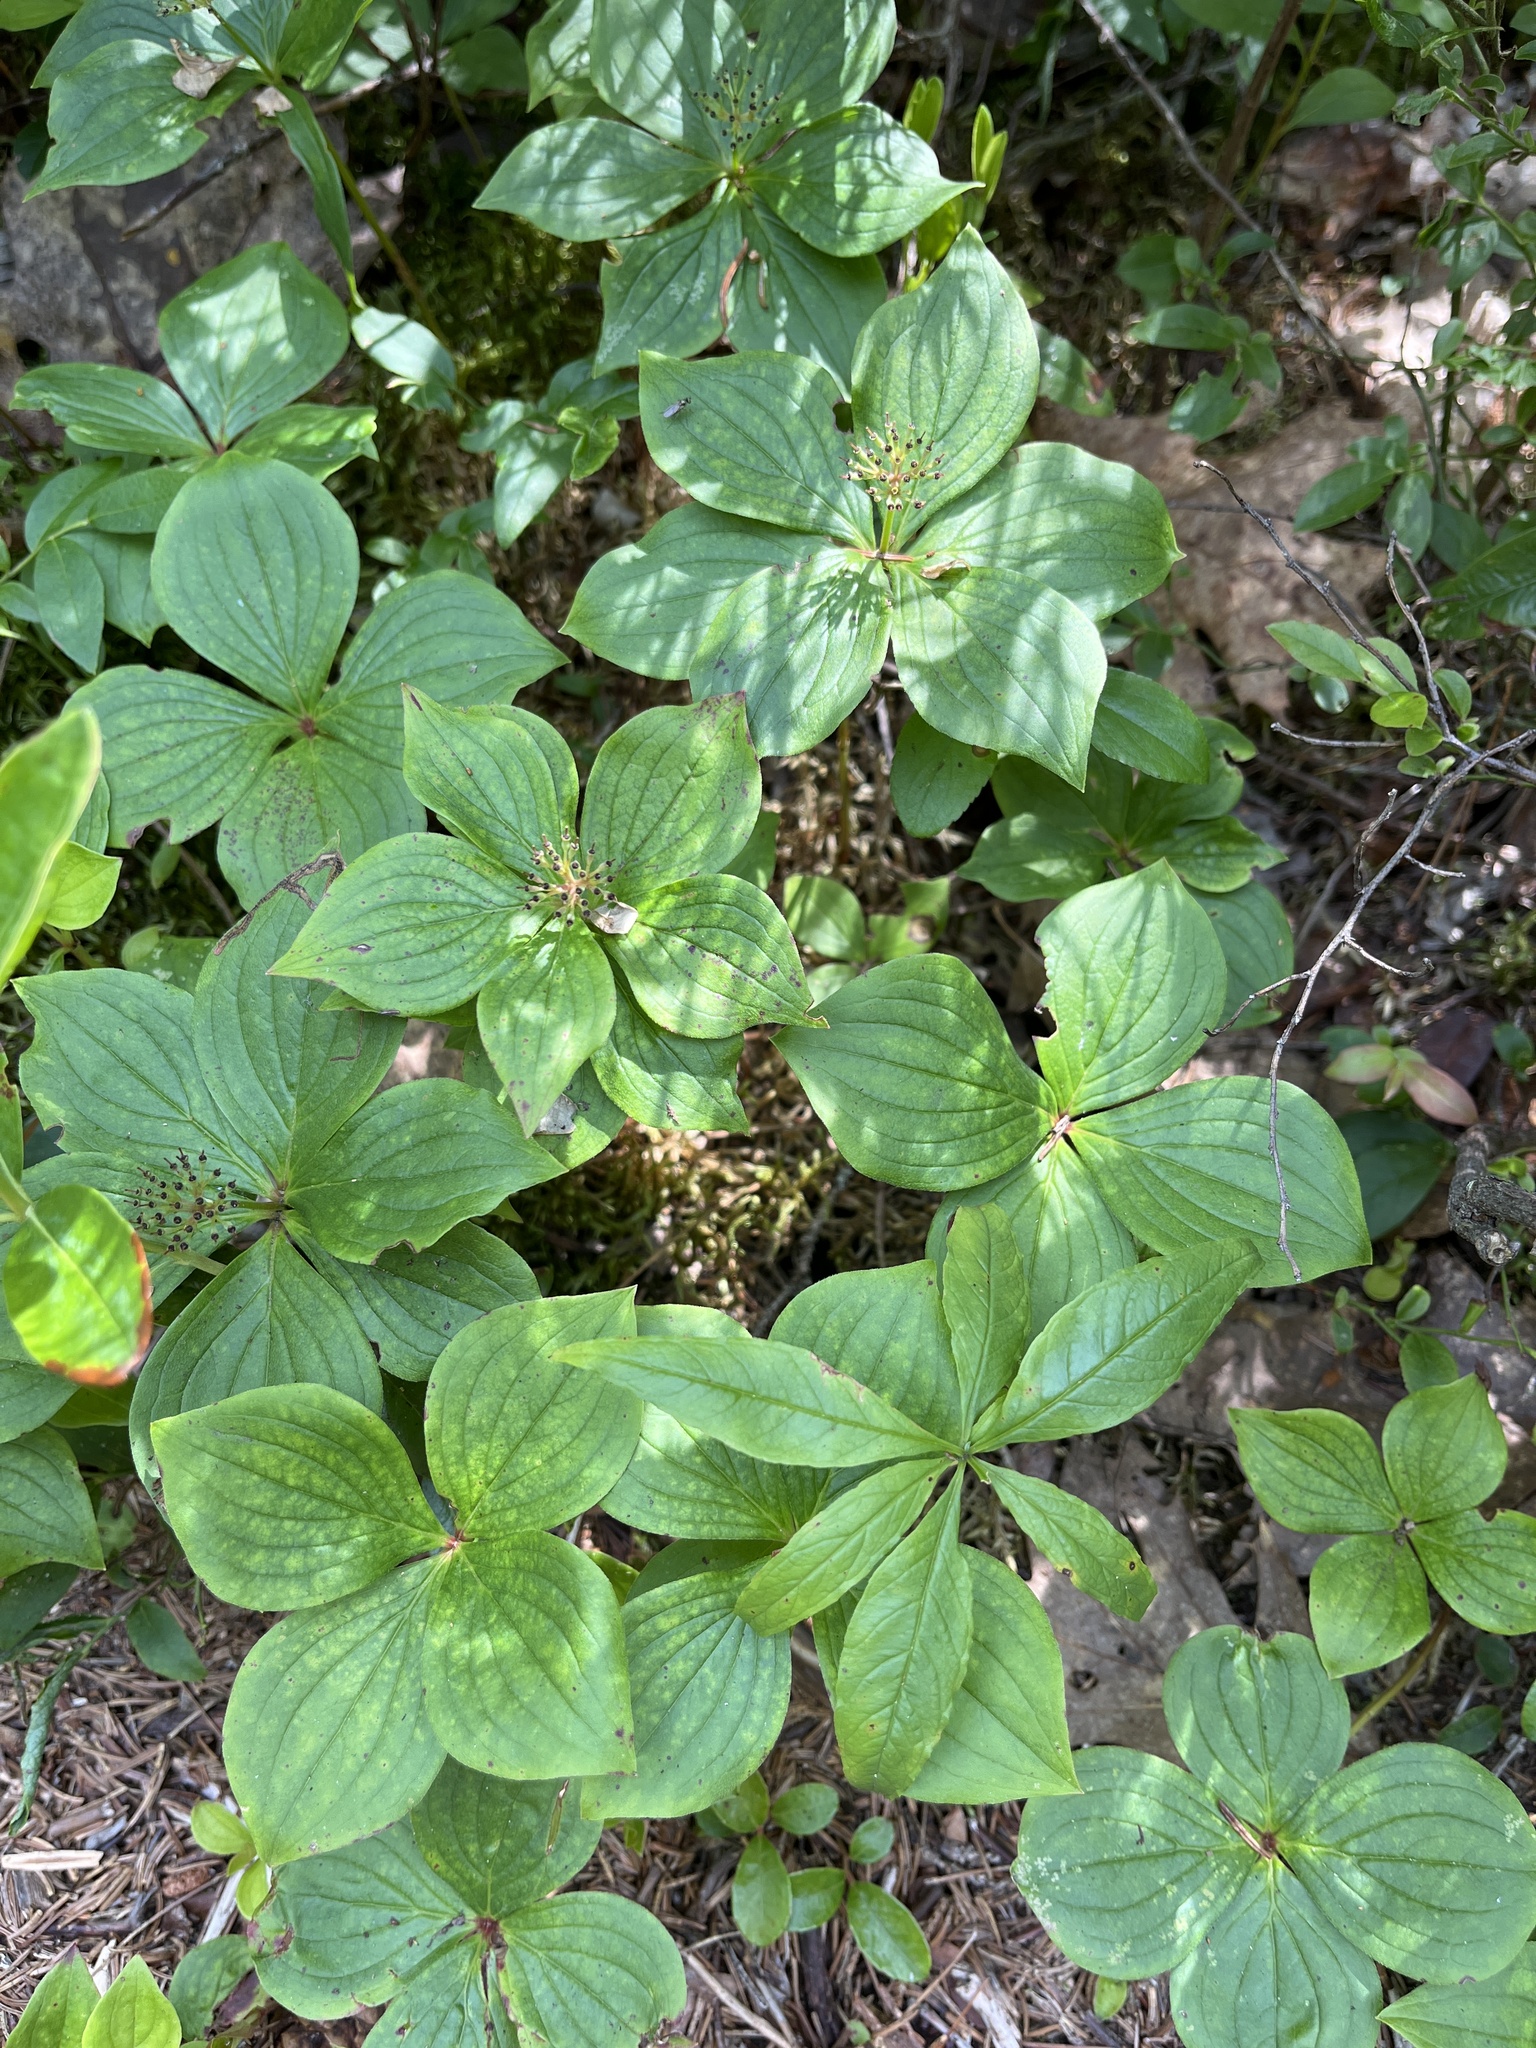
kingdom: Plantae
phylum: Tracheophyta
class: Magnoliopsida
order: Cornales
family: Cornaceae
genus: Cornus
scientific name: Cornus canadensis
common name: Creeping dogwood
